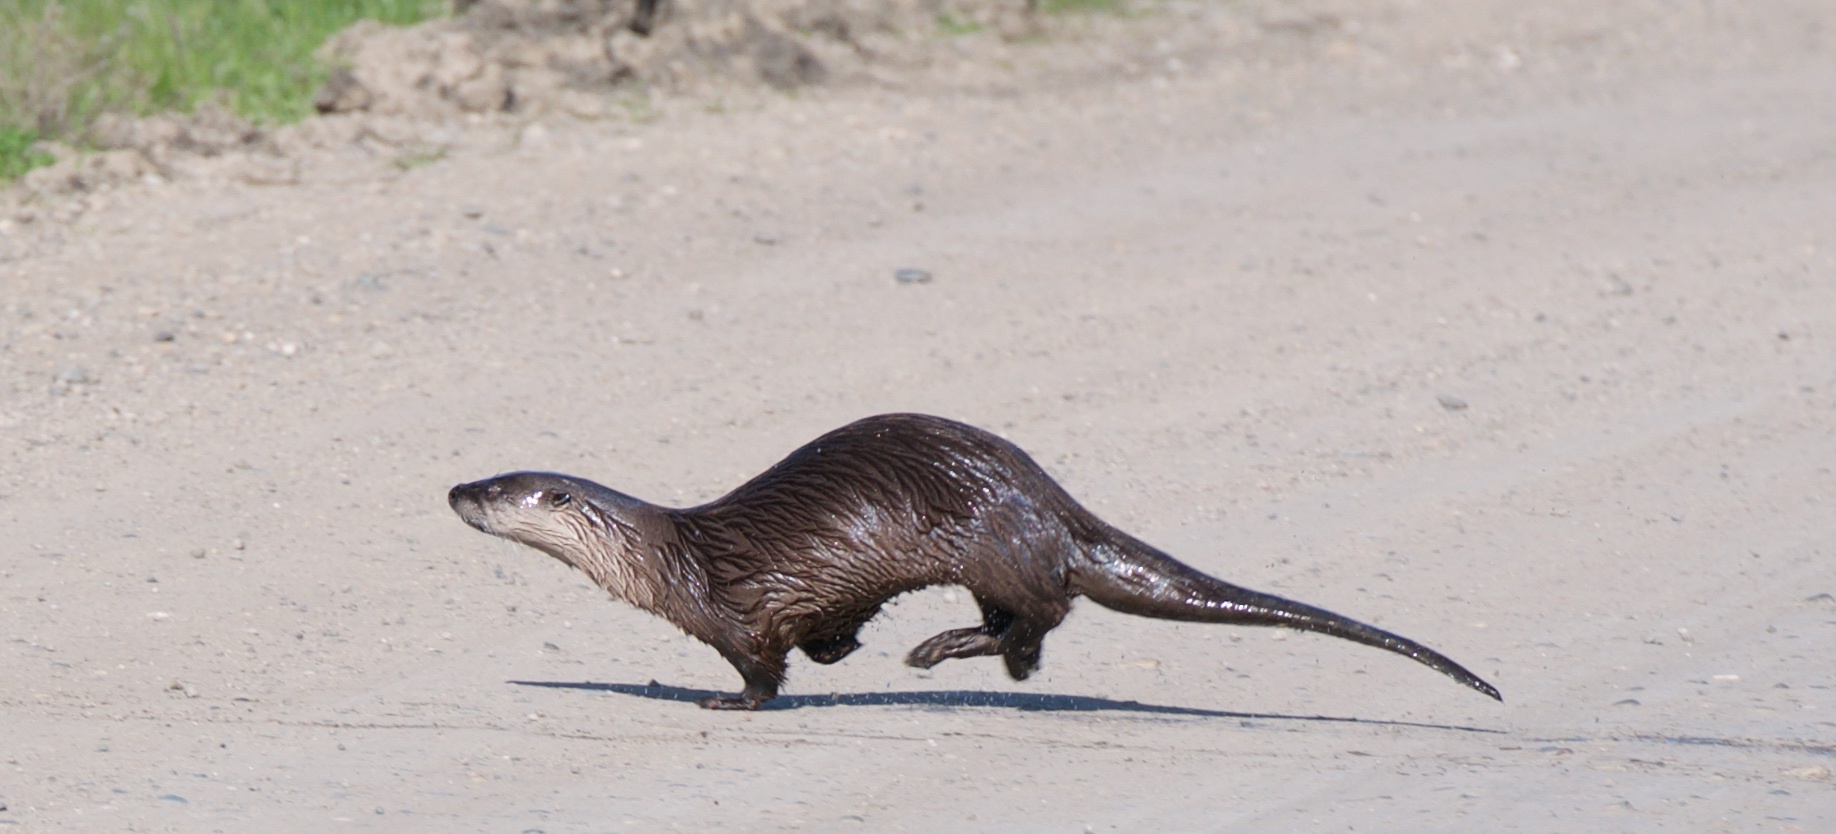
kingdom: Animalia
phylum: Chordata
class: Mammalia
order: Carnivora
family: Mustelidae
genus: Lontra
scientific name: Lontra canadensis
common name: North american river otter
